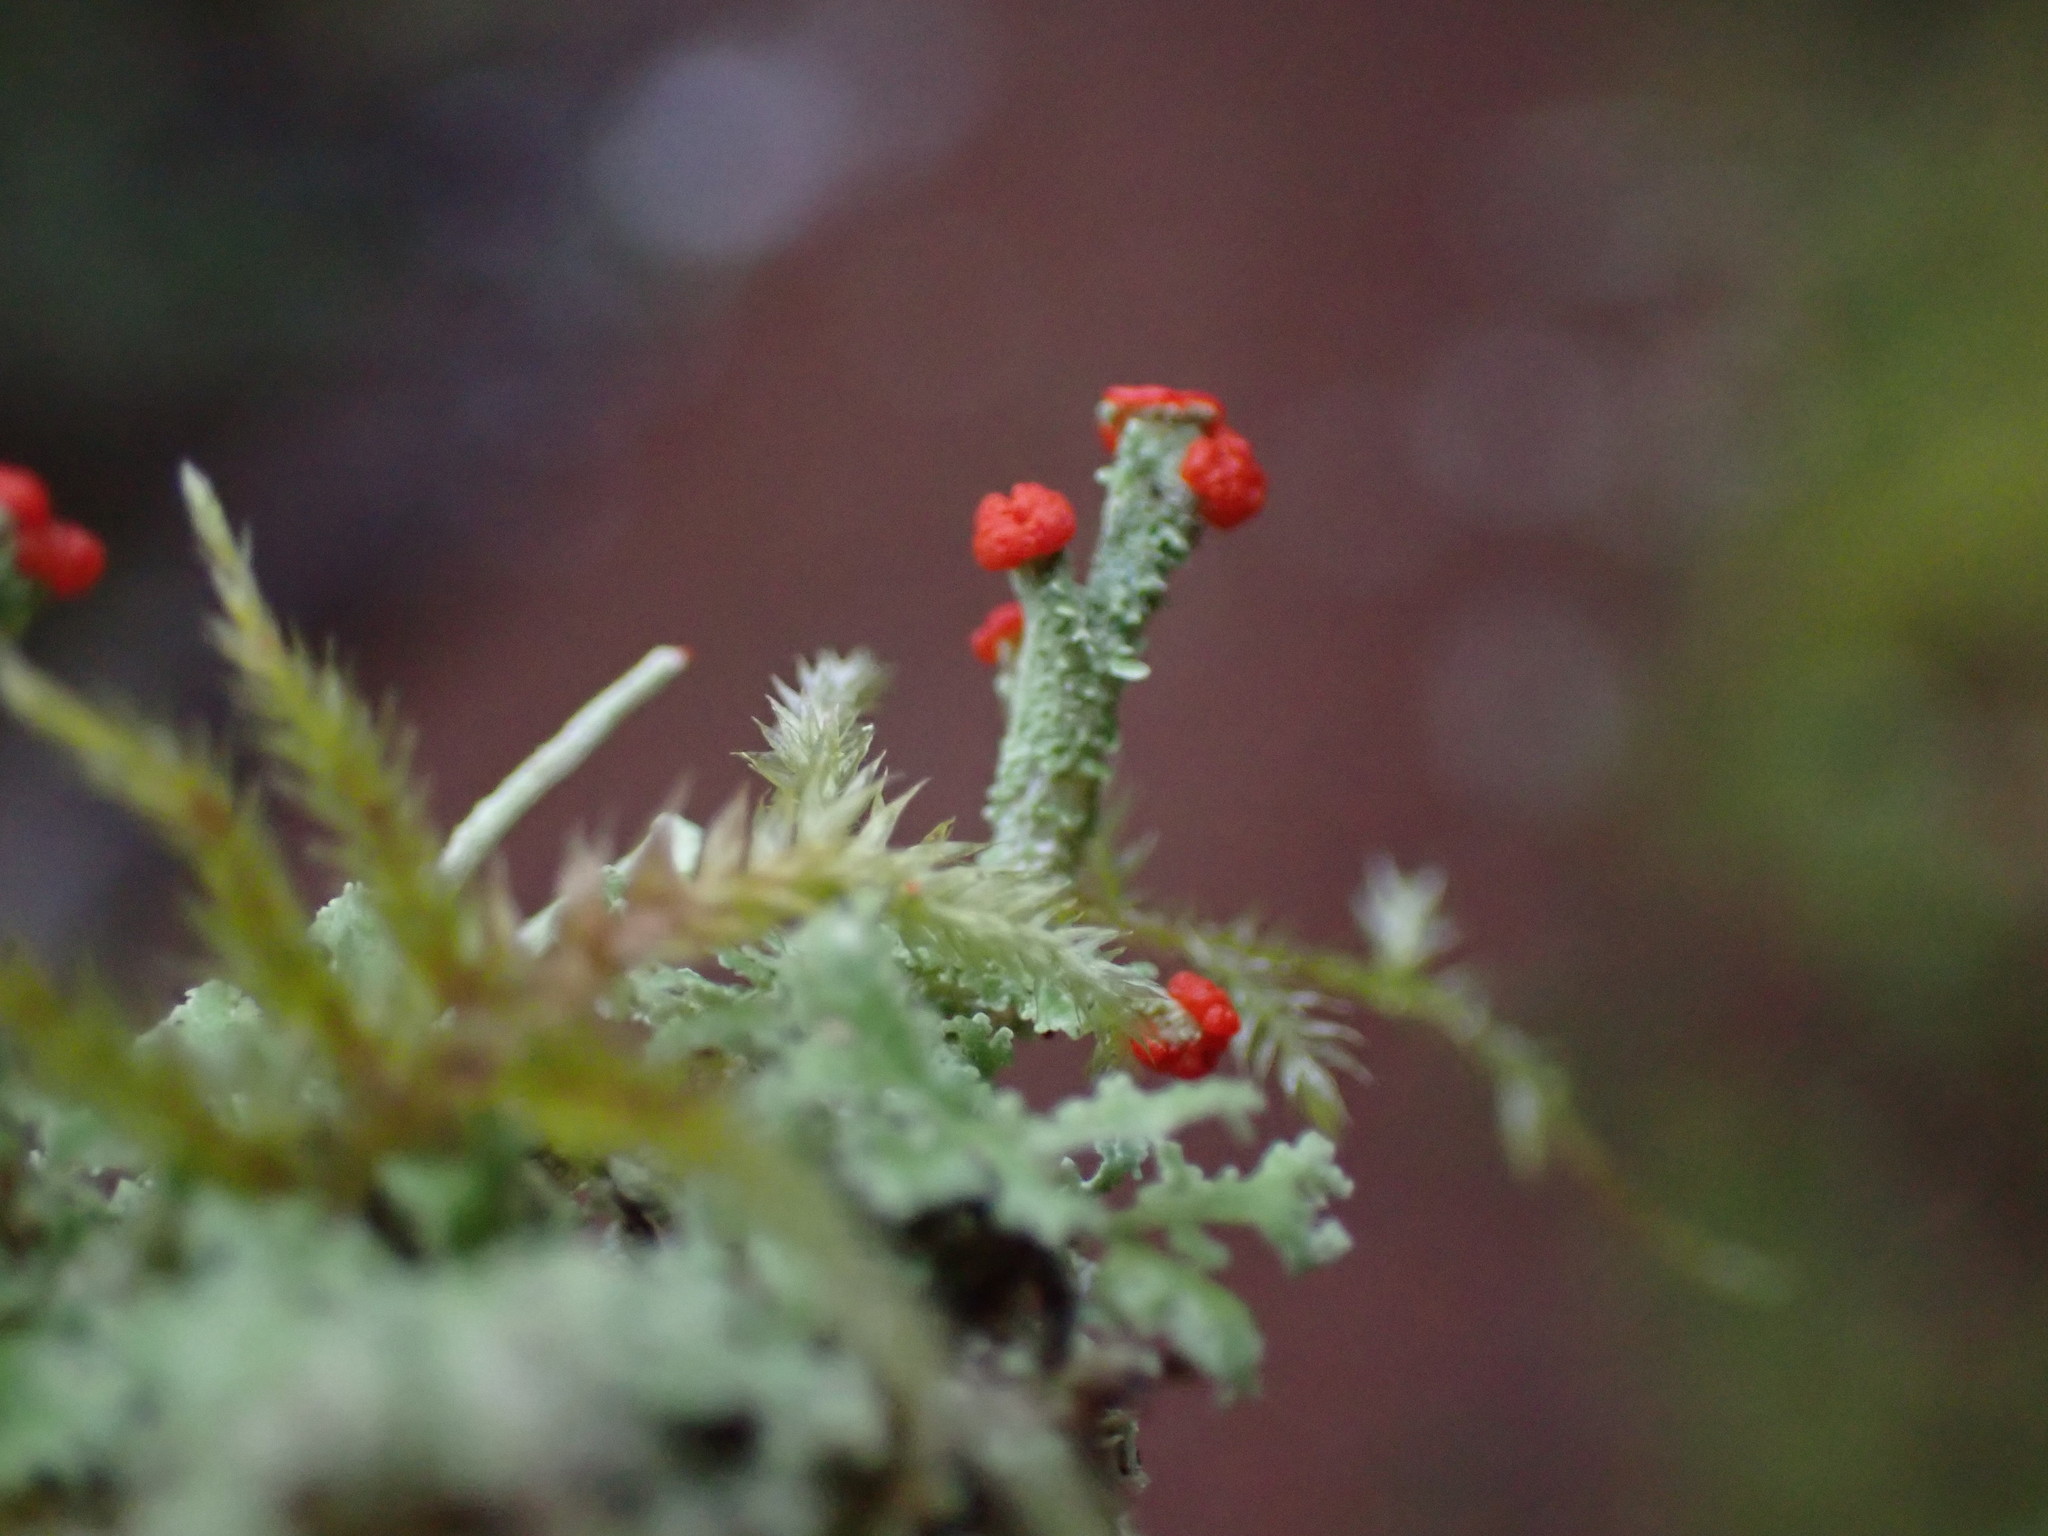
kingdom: Fungi
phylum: Ascomycota
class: Lecanoromycetes
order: Lecanorales
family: Cladoniaceae
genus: Cladonia
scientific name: Cladonia bellidiflora
